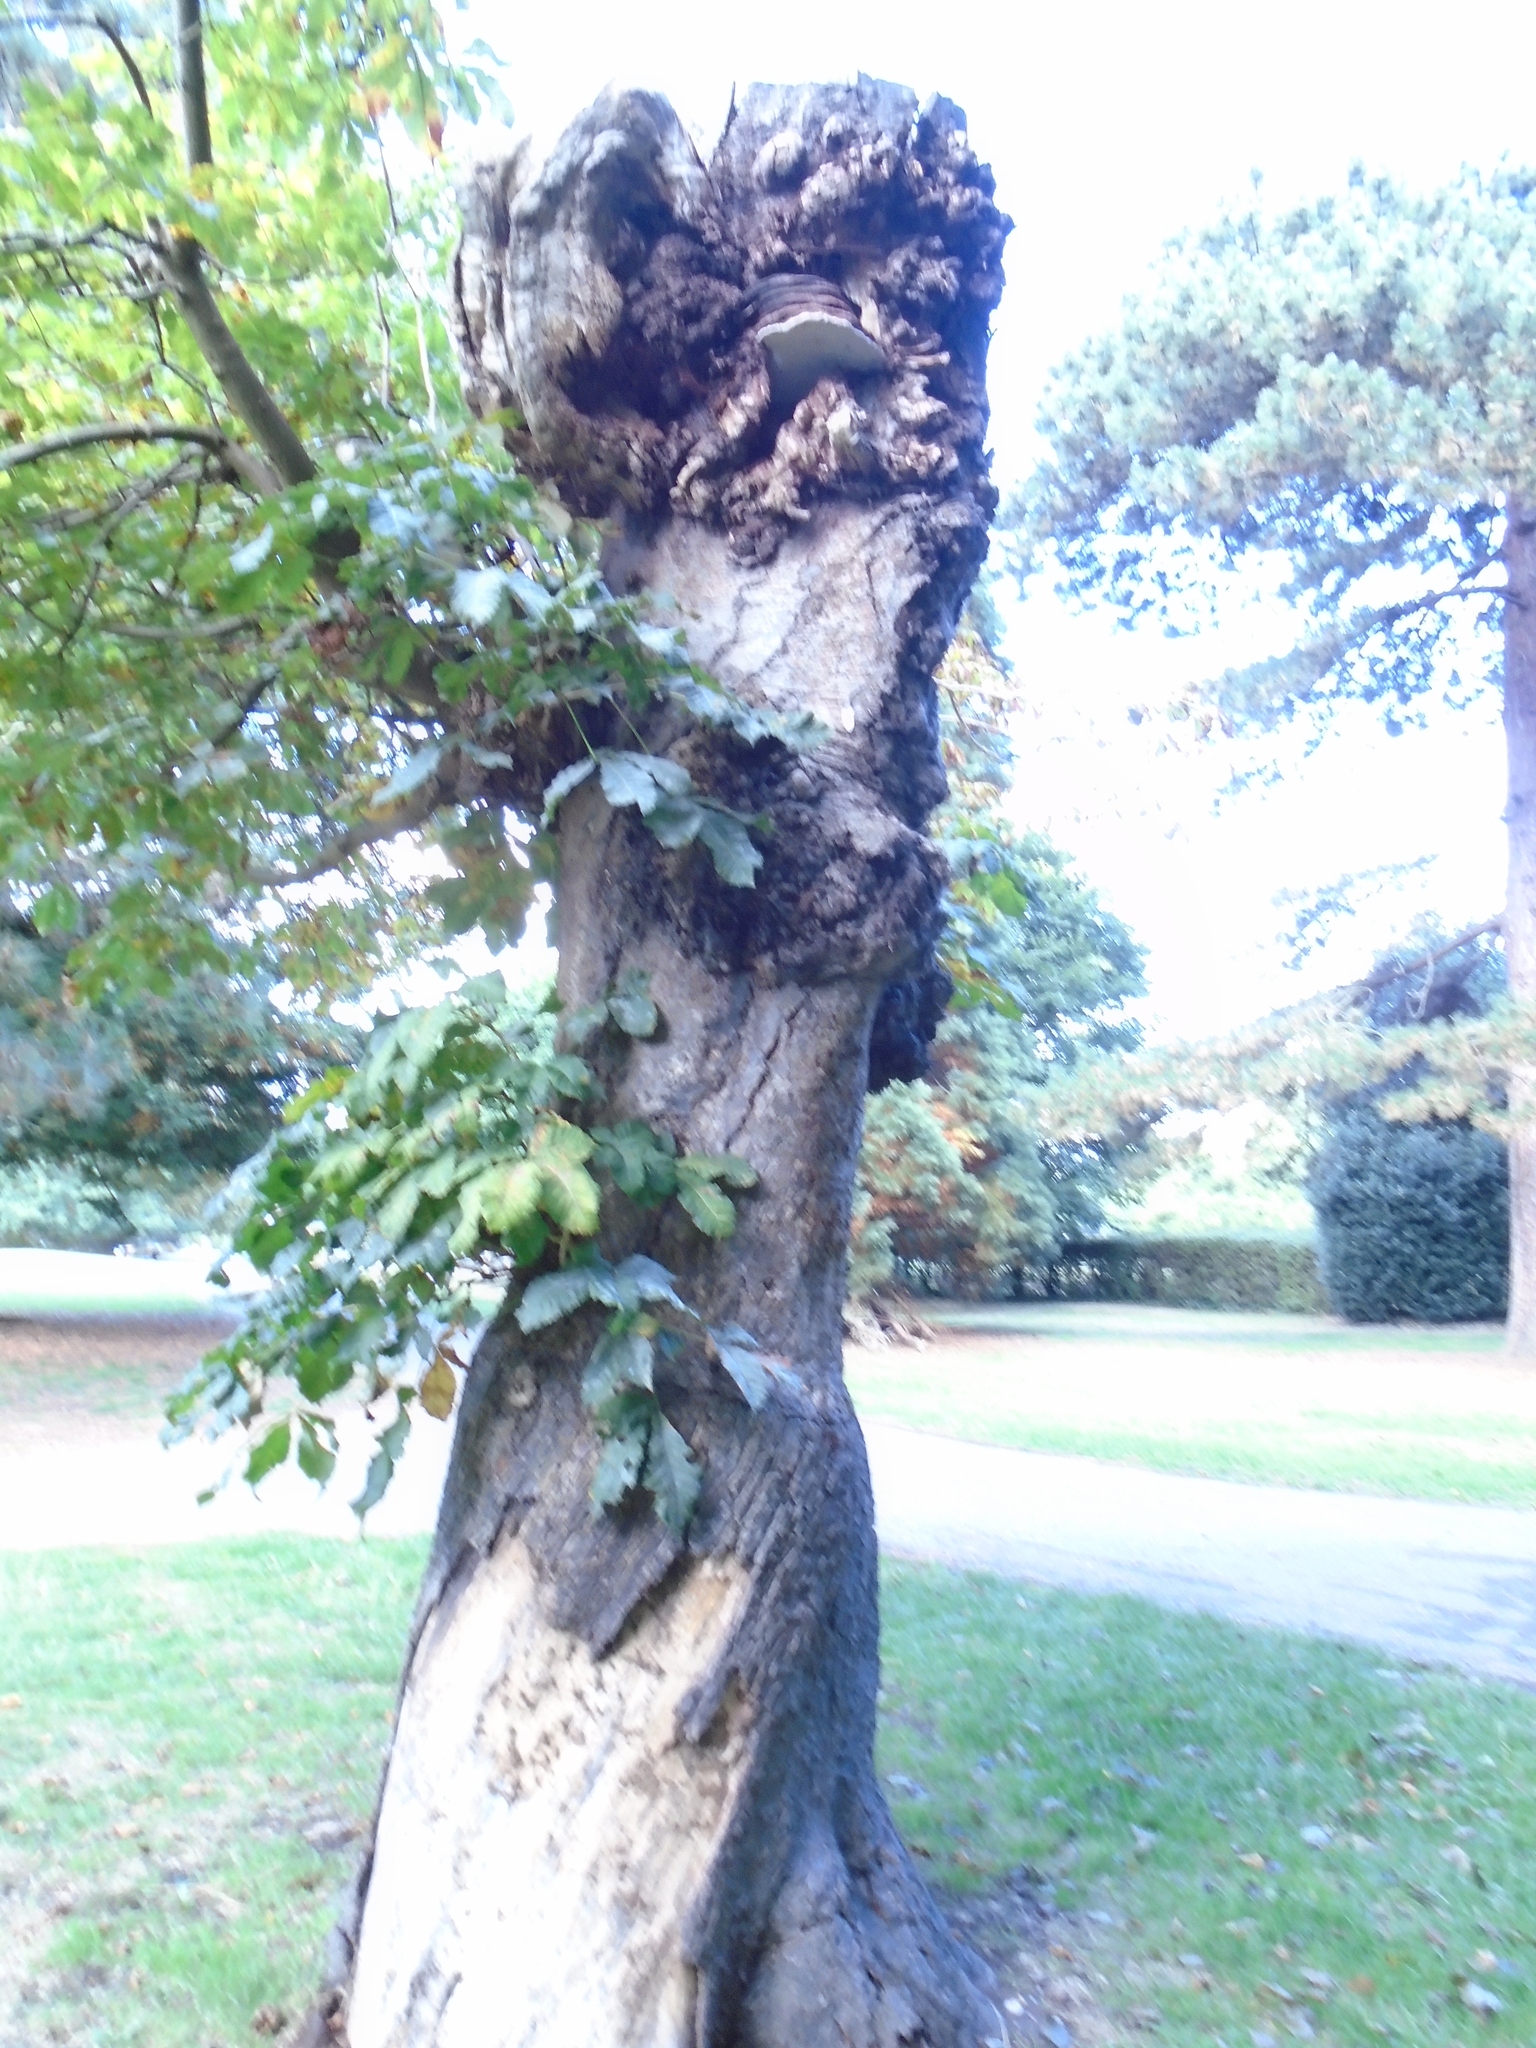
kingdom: Fungi
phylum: Basidiomycota
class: Agaricomycetes
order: Polyporales
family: Polyporaceae
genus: Fomes
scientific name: Fomes fomentarius
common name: Hoof fungus
